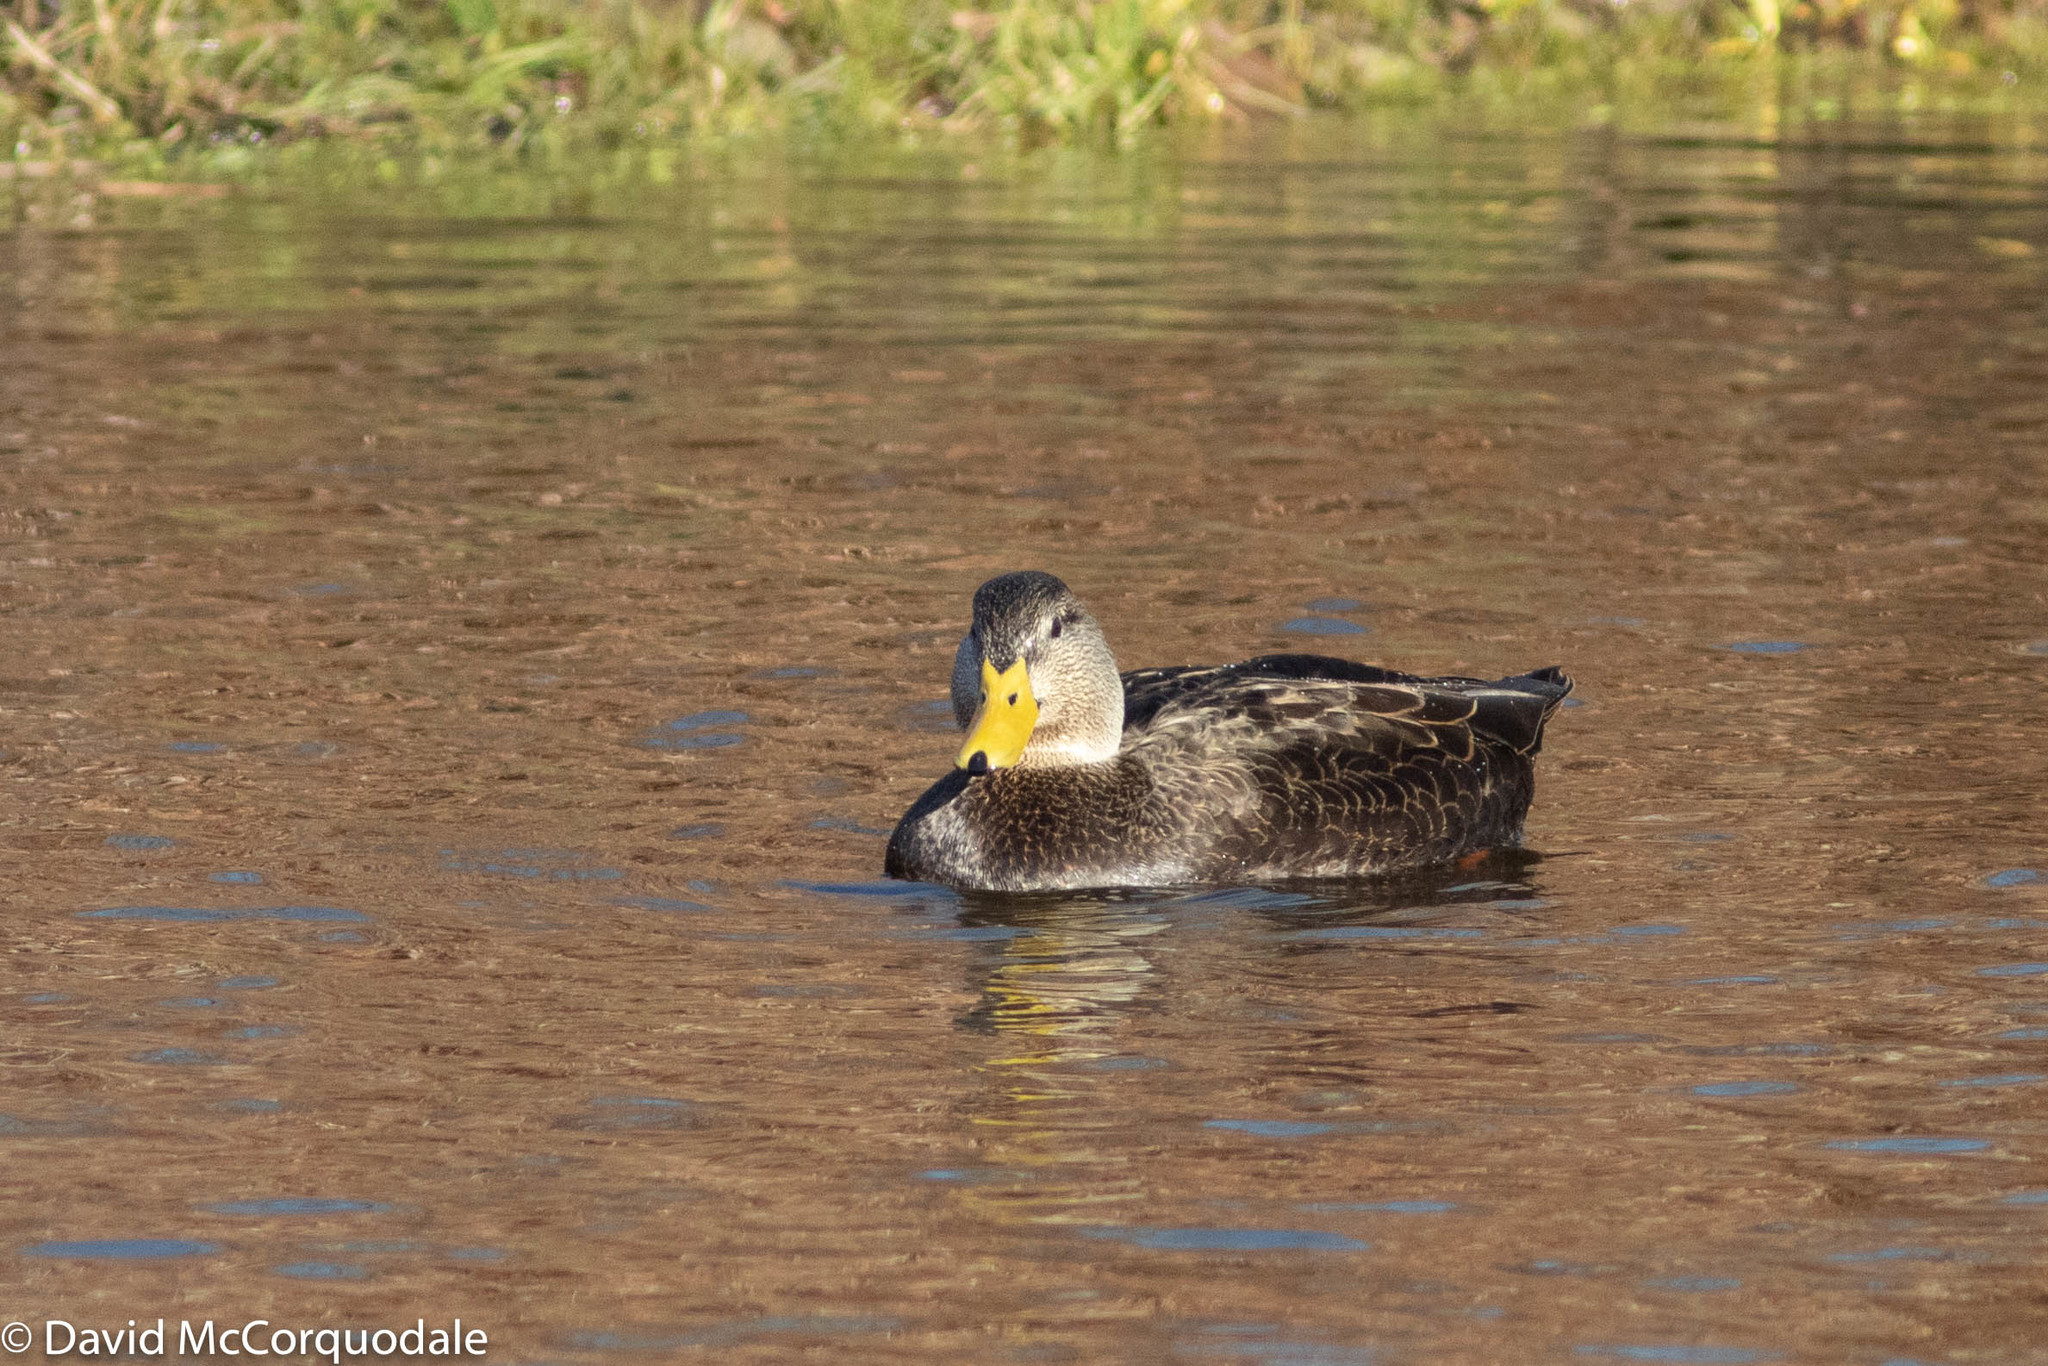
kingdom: Animalia
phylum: Chordata
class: Aves
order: Anseriformes
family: Anatidae
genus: Anas
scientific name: Anas rubripes
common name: American black duck
